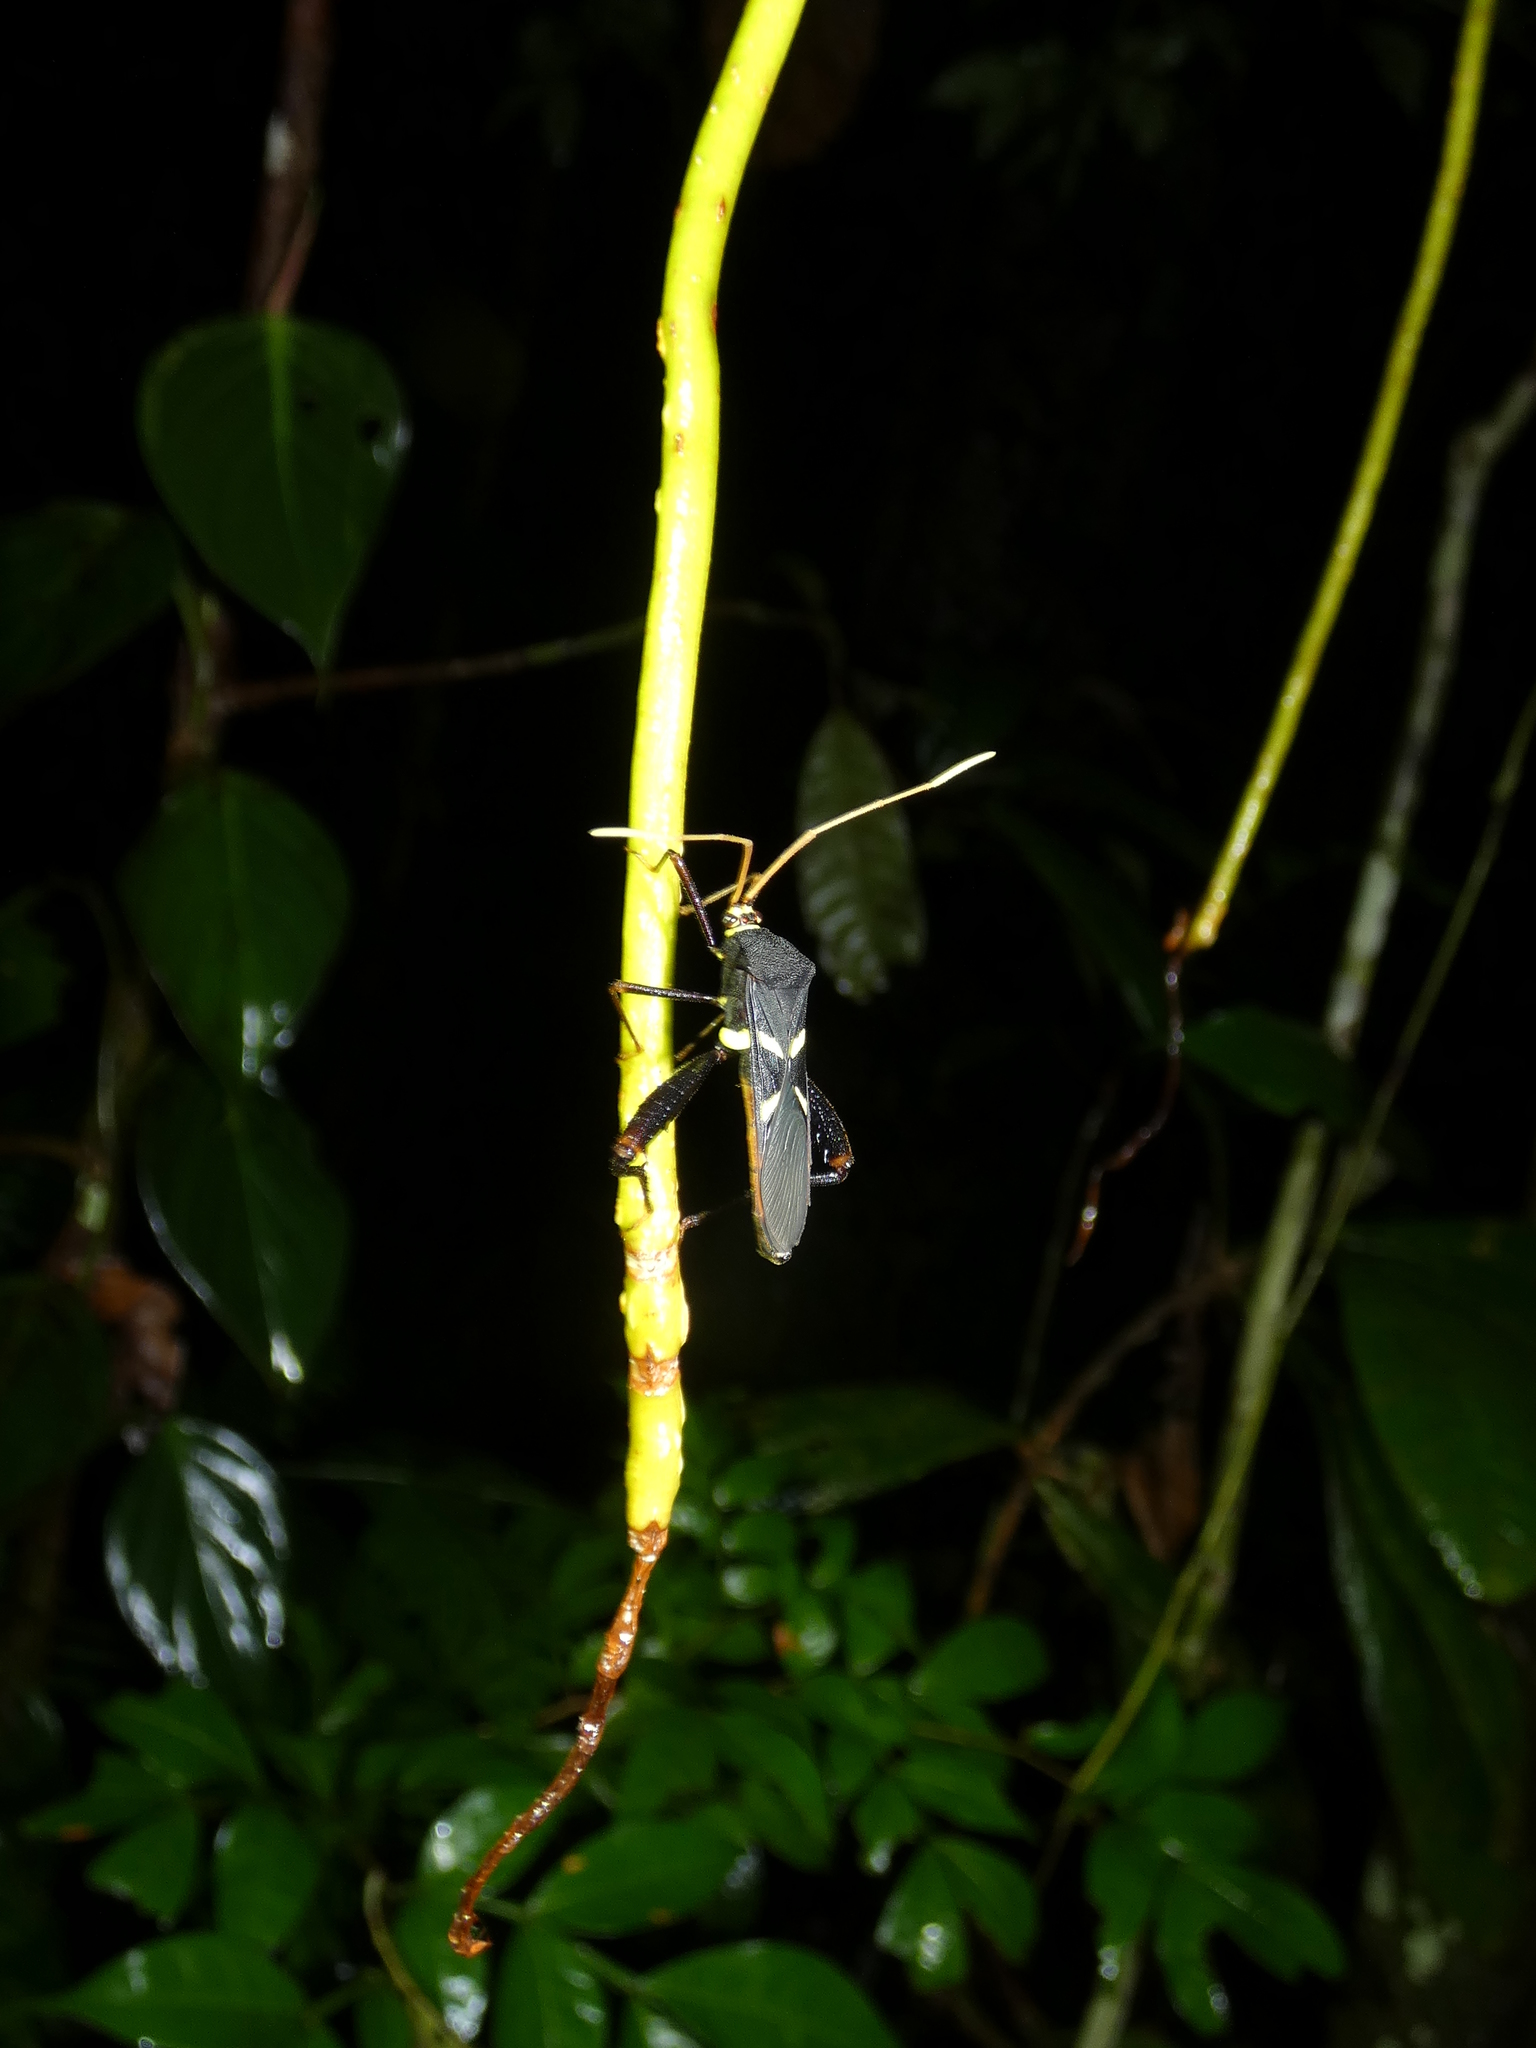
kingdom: Animalia
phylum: Arthropoda
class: Insecta
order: Hemiptera
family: Coreidae
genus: Moronopelios
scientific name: Moronopelios flavoantennatus
